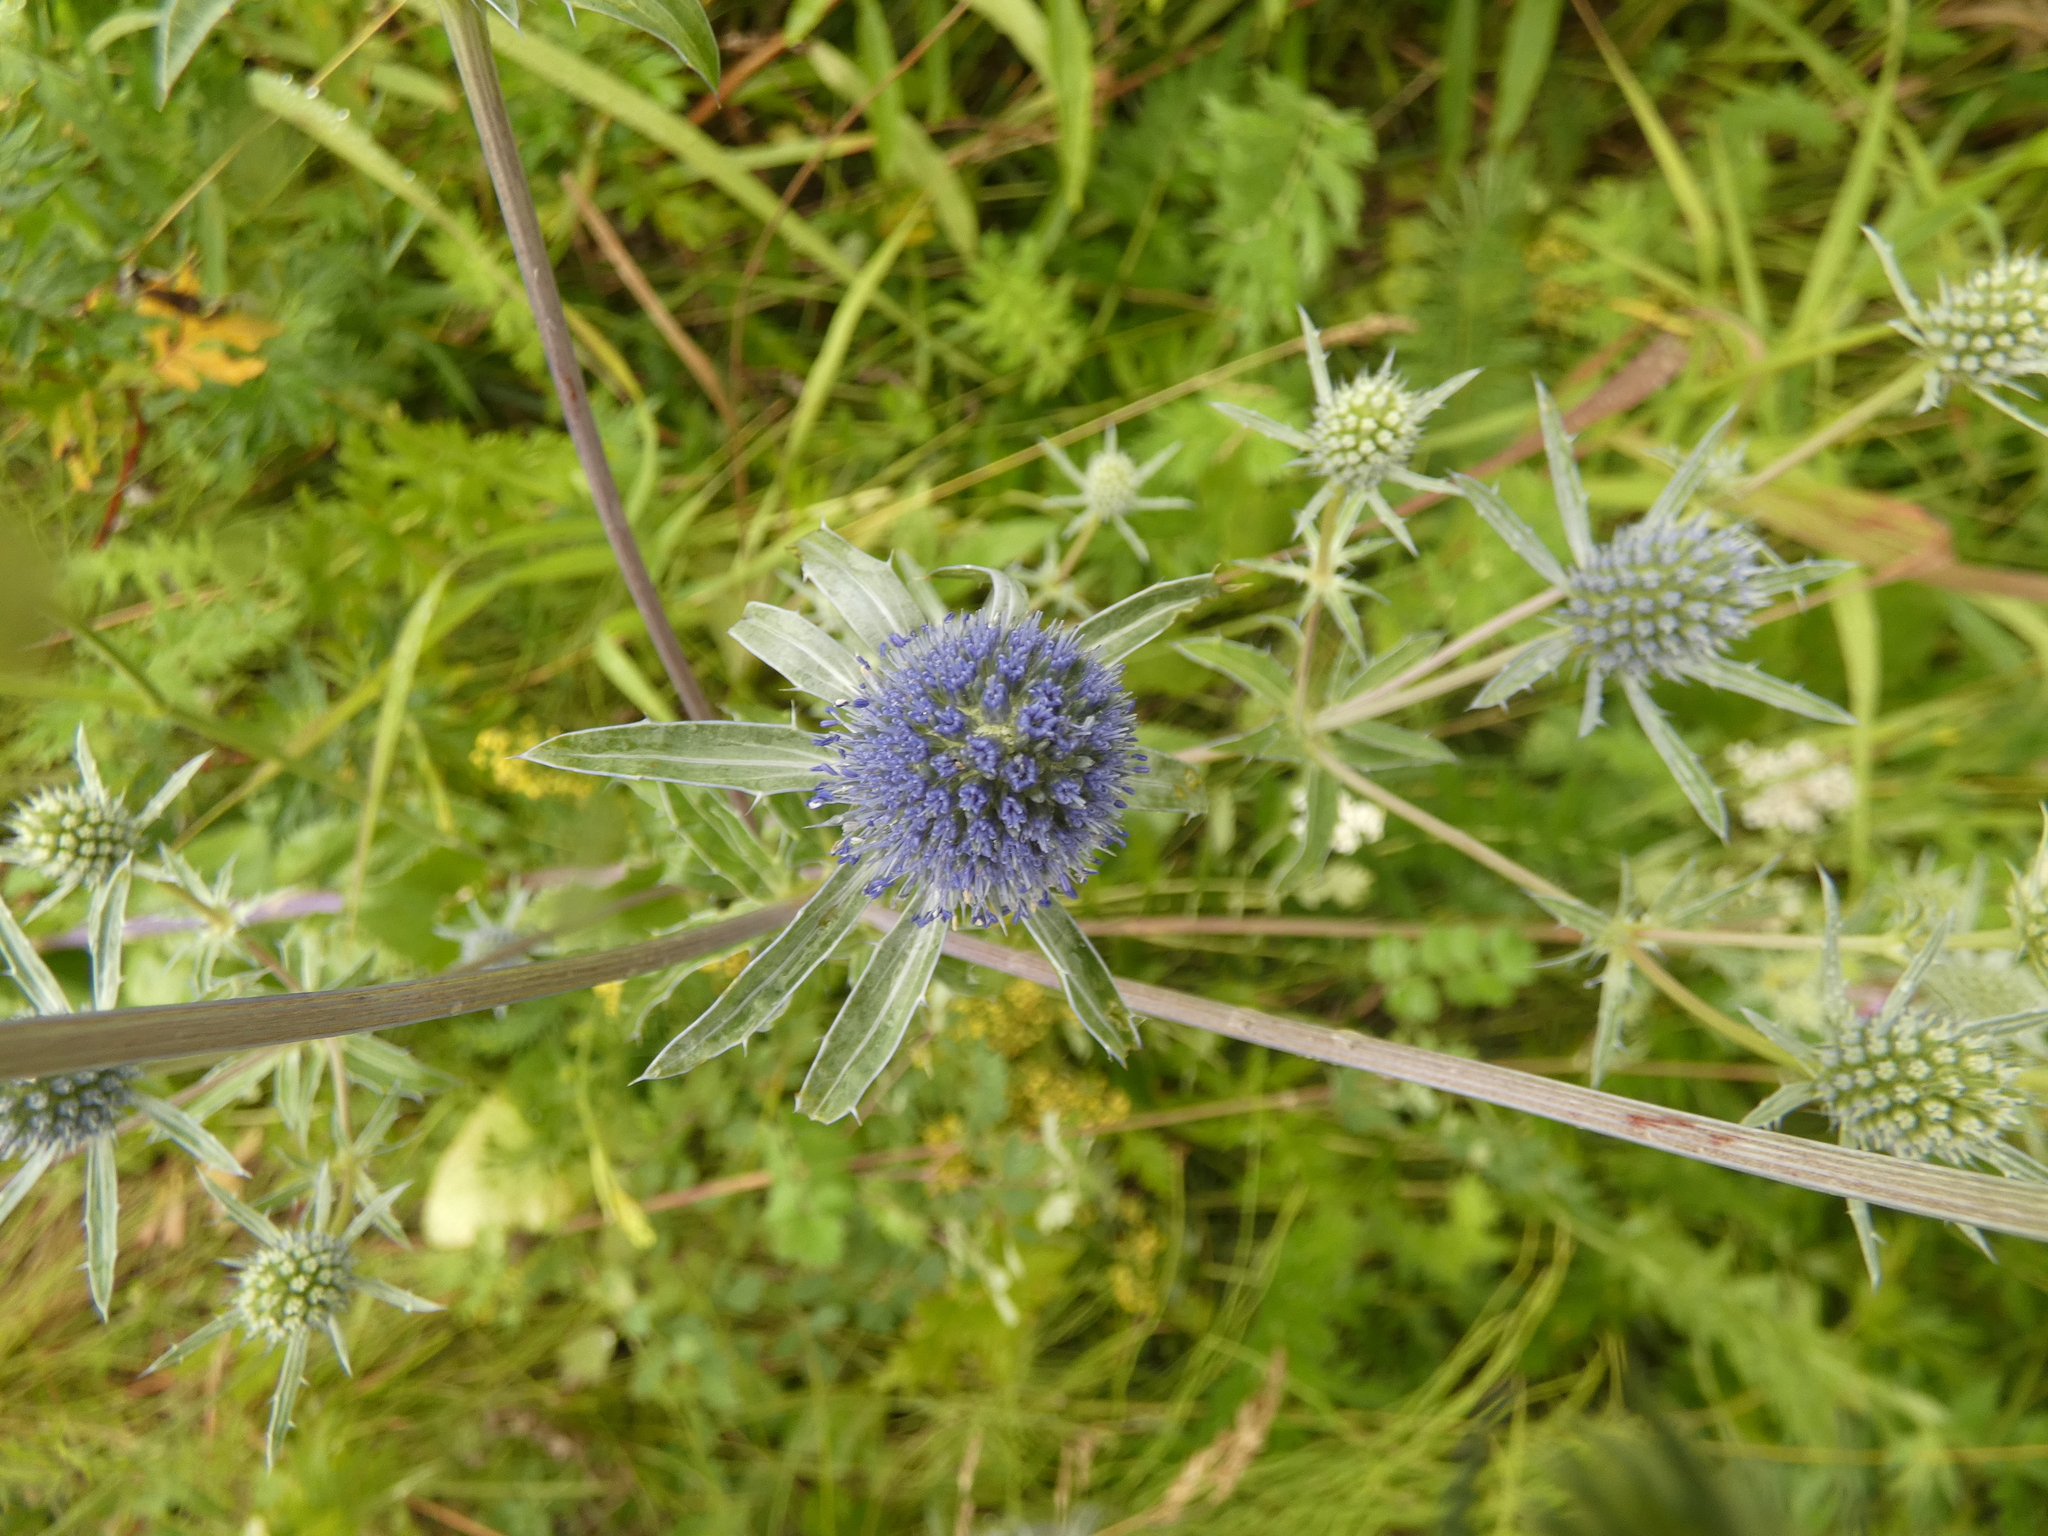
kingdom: Plantae
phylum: Tracheophyta
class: Magnoliopsida
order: Apiales
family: Apiaceae
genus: Eryngium
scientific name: Eryngium planum
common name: Blue eryngo
